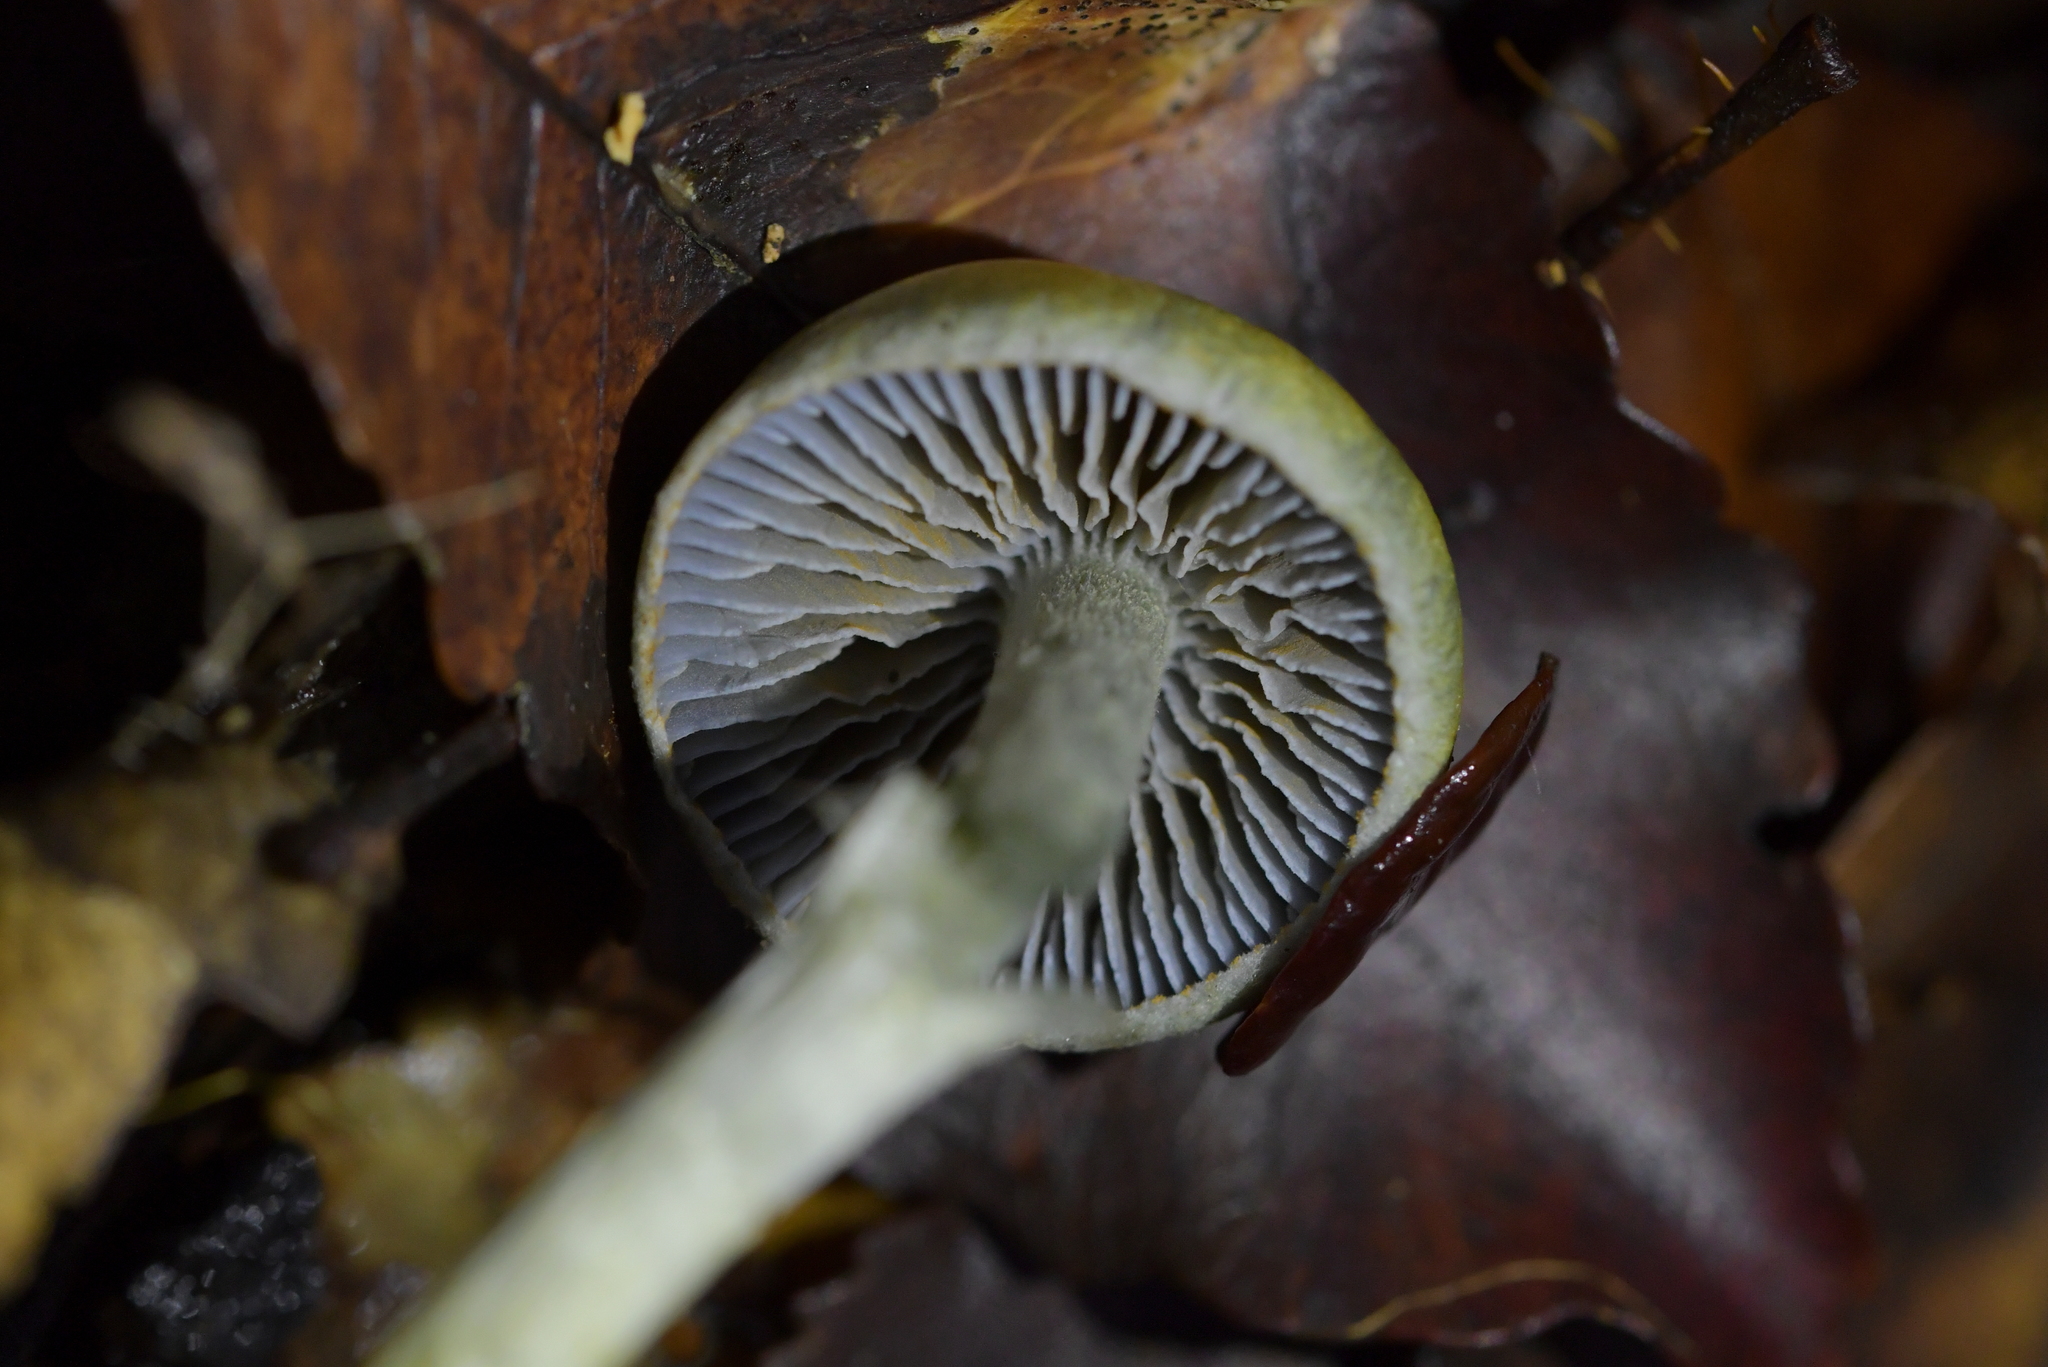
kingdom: Fungi
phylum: Basidiomycota
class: Agaricomycetes
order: Agaricales
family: Cortinariaceae
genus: Cortinarius
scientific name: Cortinarius aerugineoconicus
